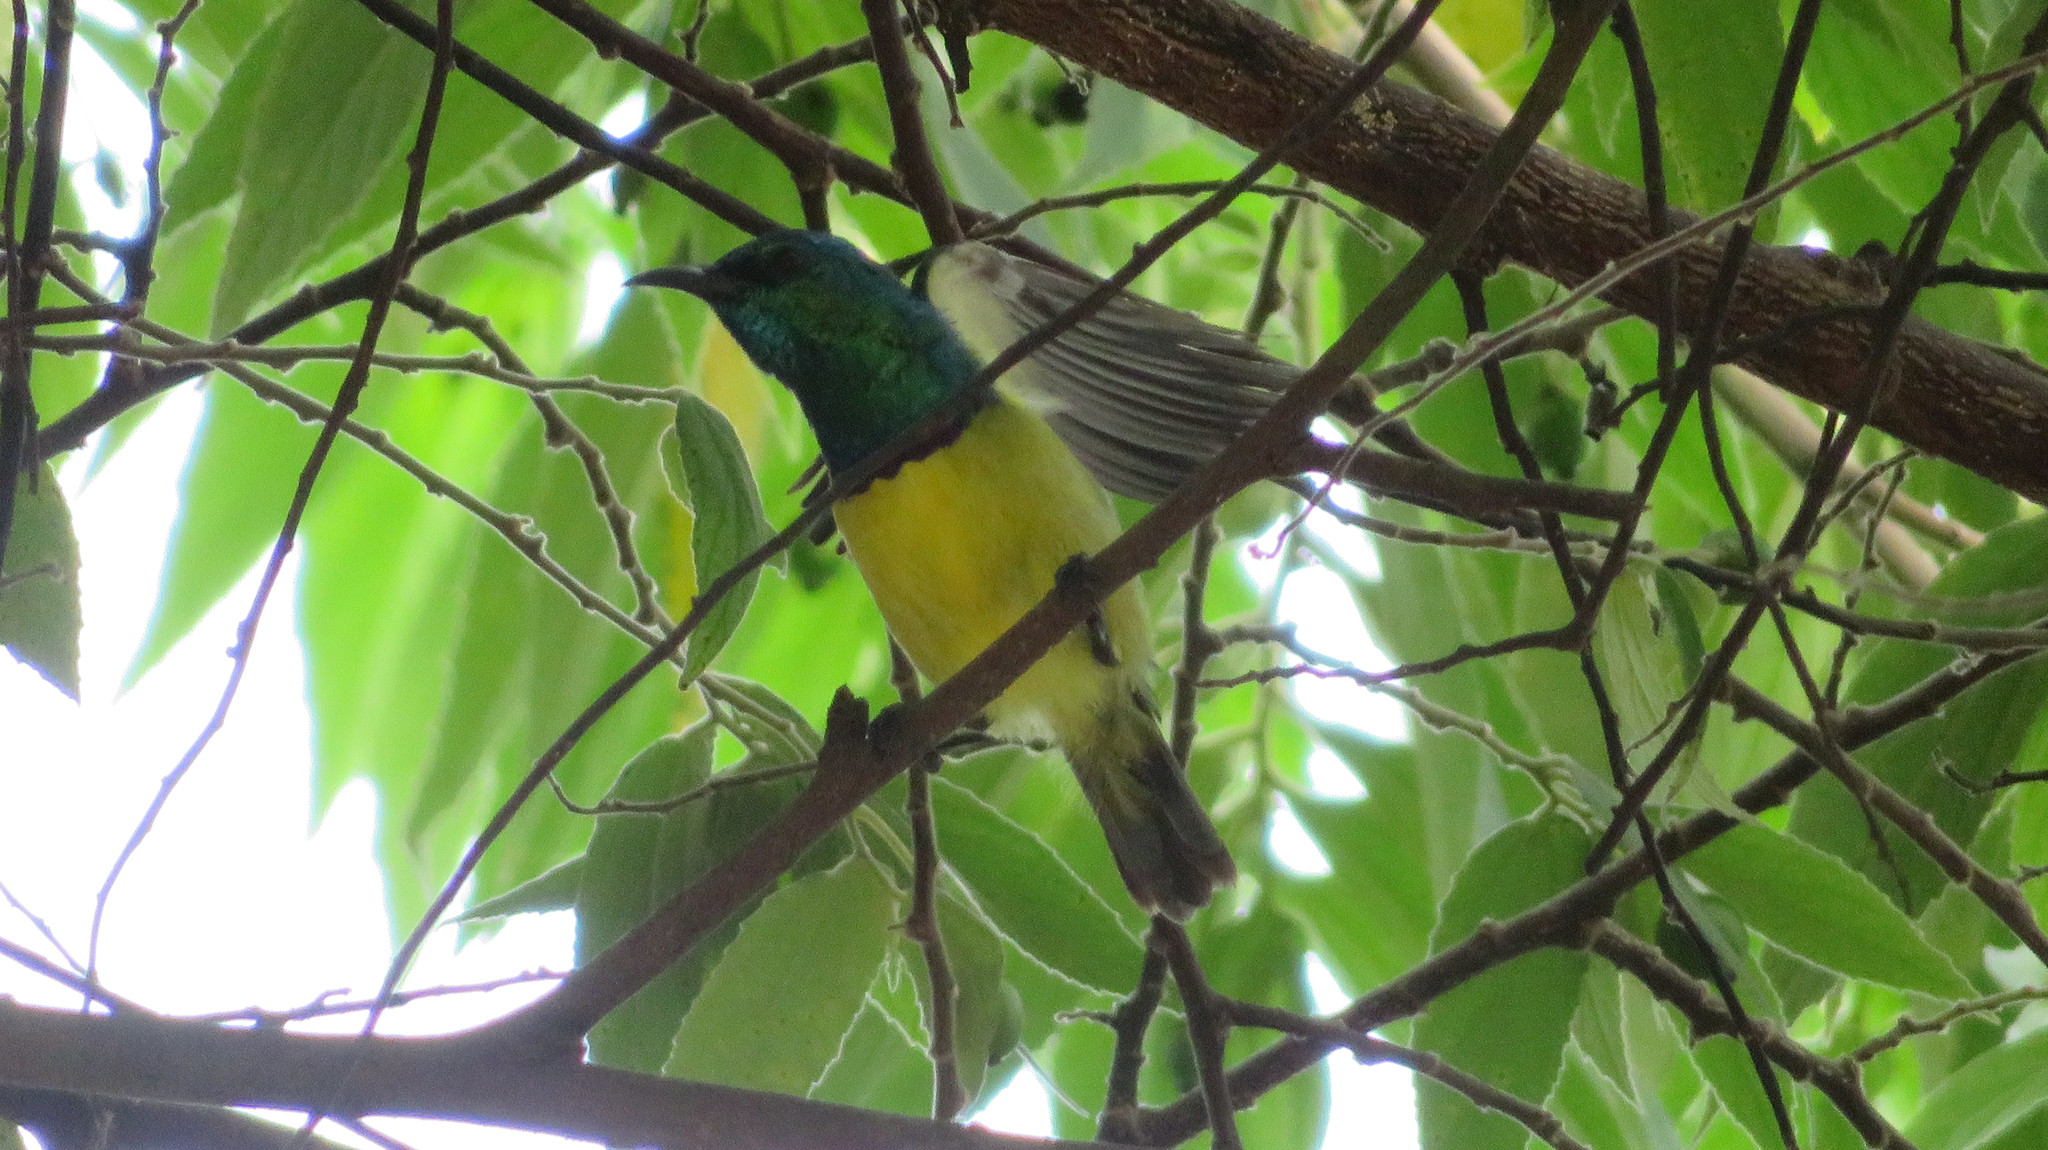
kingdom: Animalia
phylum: Chordata
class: Aves
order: Passeriformes
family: Nectariniidae
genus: Hedydipna
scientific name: Hedydipna collaris
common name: Collared sunbird
